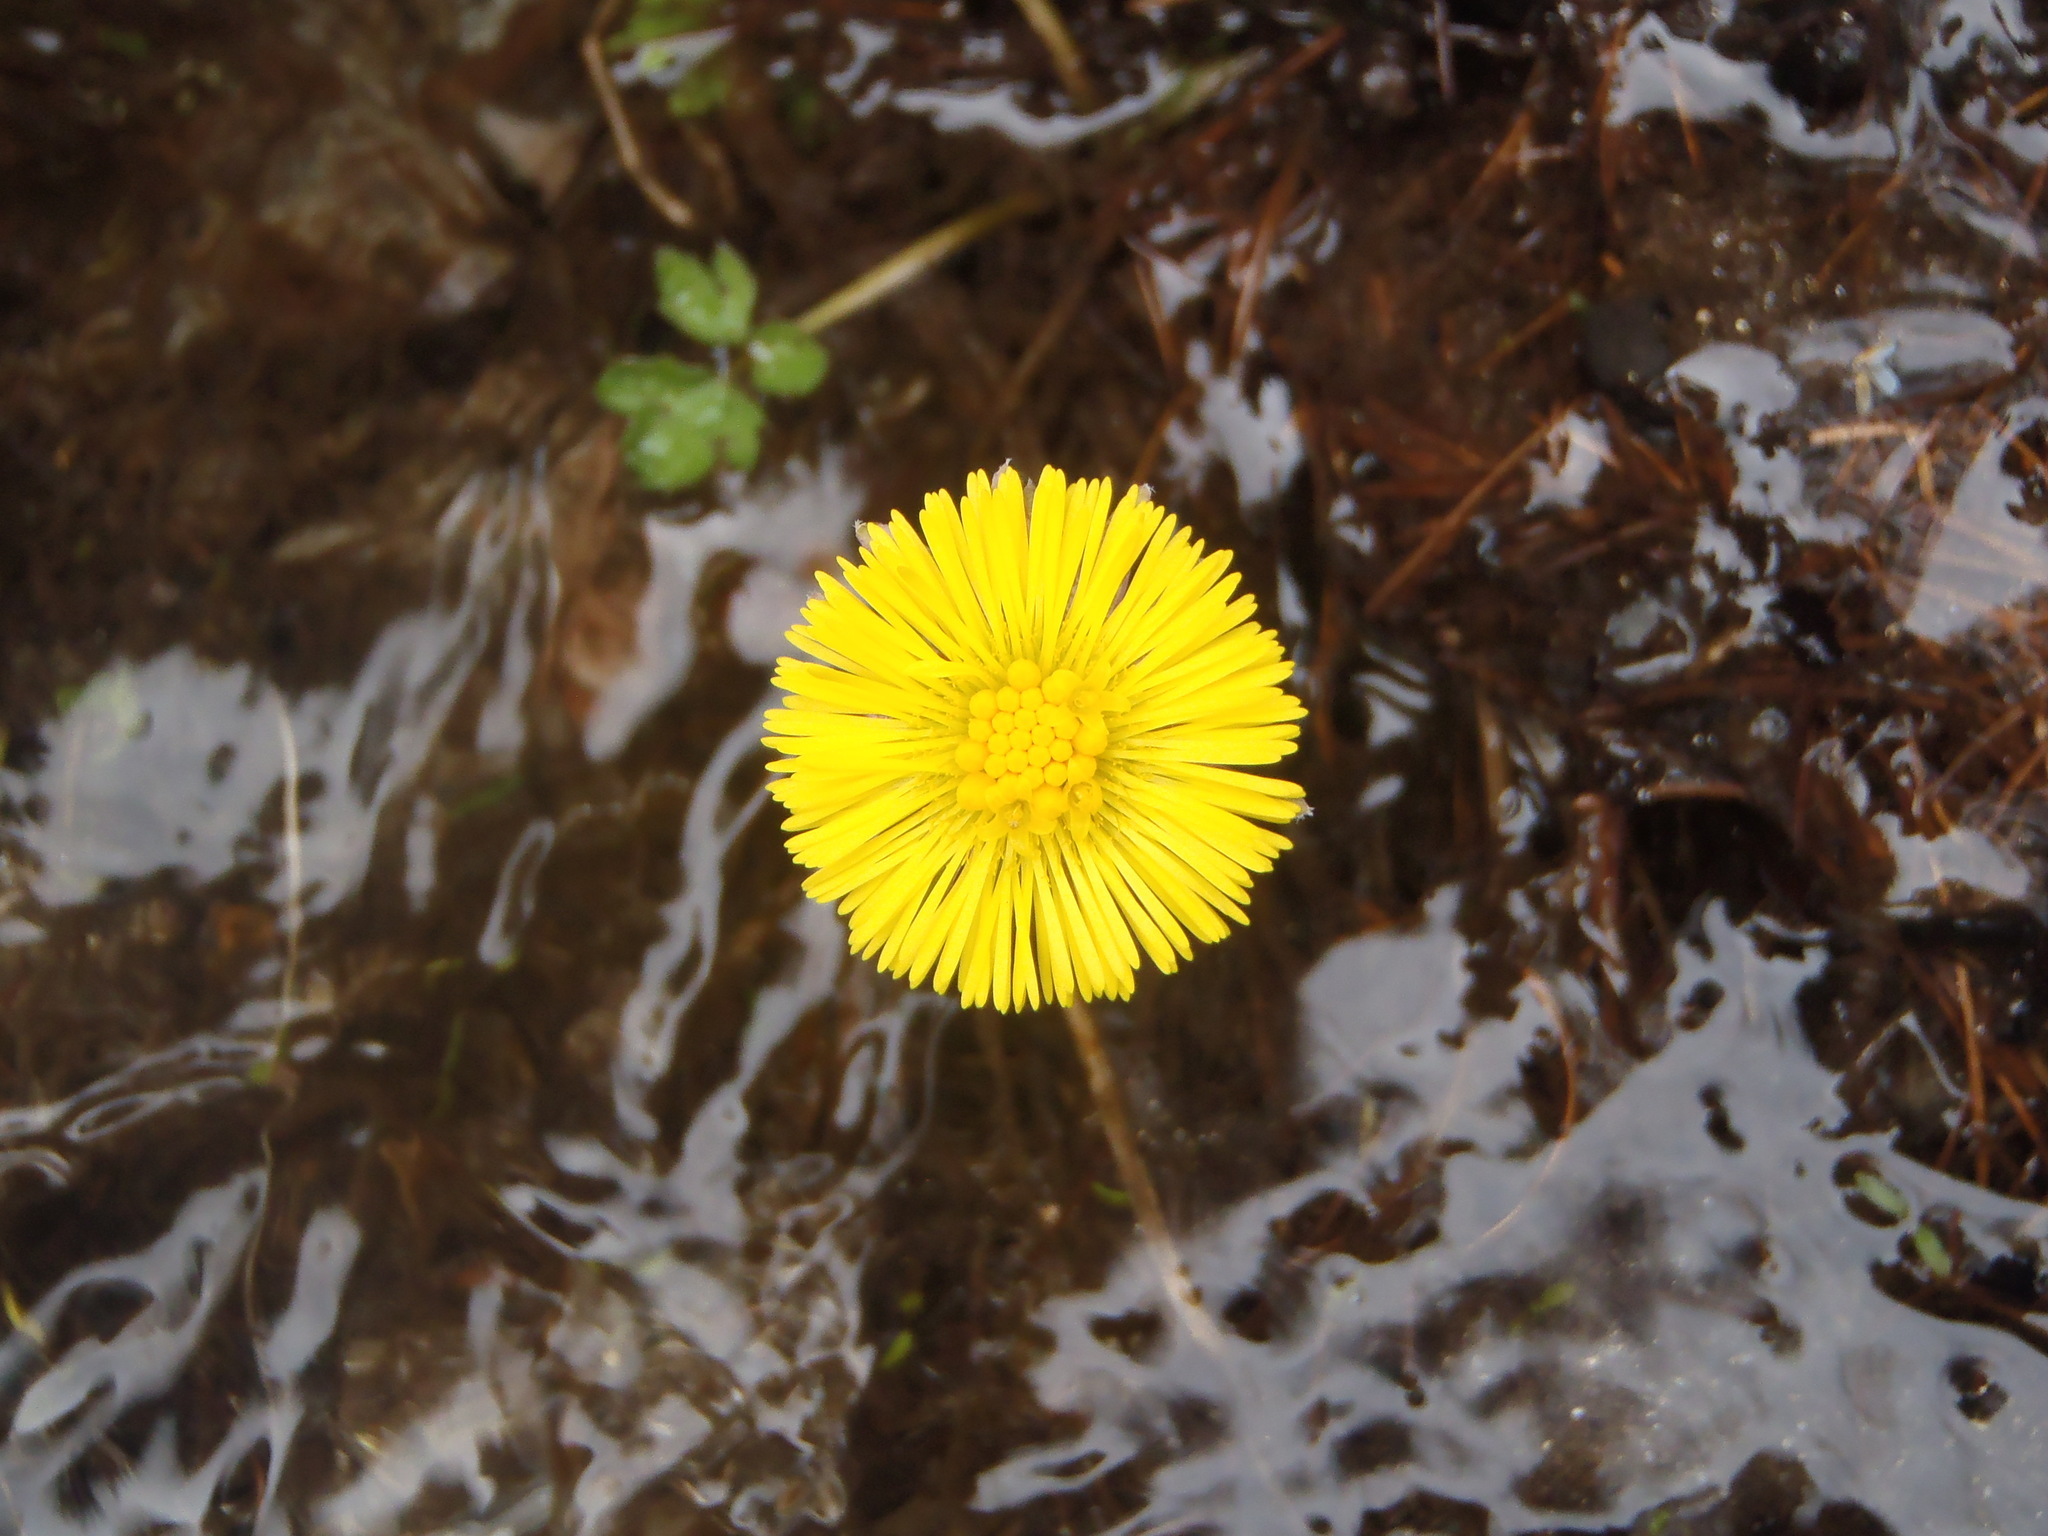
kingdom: Plantae
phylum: Tracheophyta
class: Magnoliopsida
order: Asterales
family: Asteraceae
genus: Tussilago
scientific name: Tussilago farfara
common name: Coltsfoot
